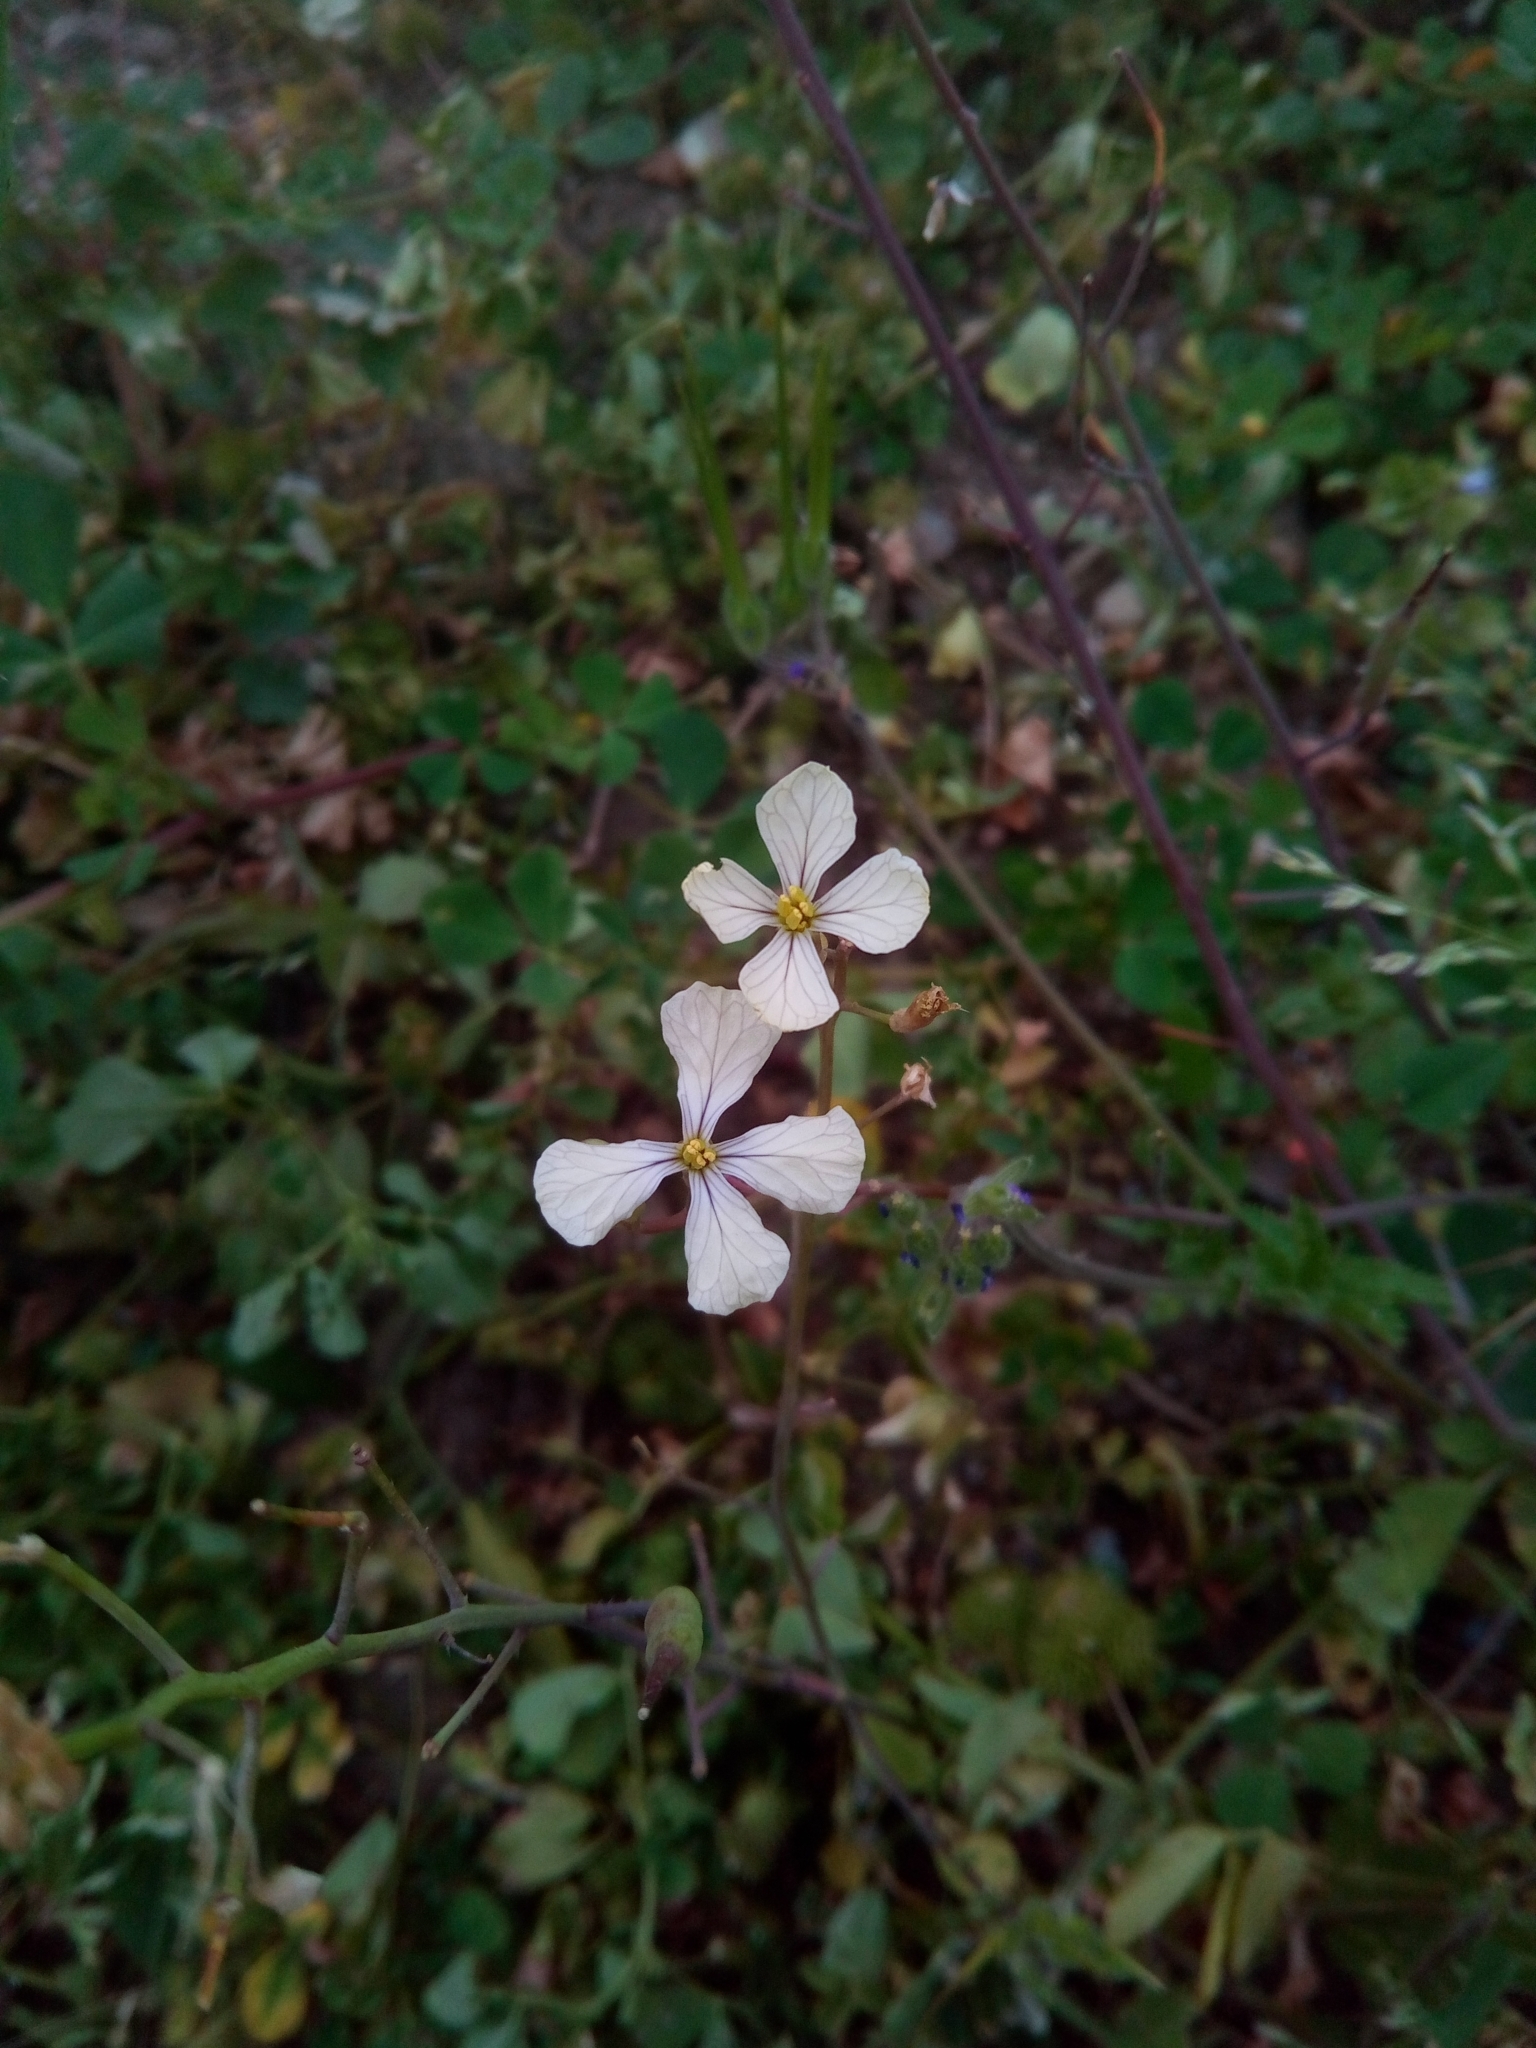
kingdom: Plantae
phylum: Tracheophyta
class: Magnoliopsida
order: Brassicales
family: Brassicaceae
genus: Raphanus
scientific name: Raphanus raphanistrum
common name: Wild radish
